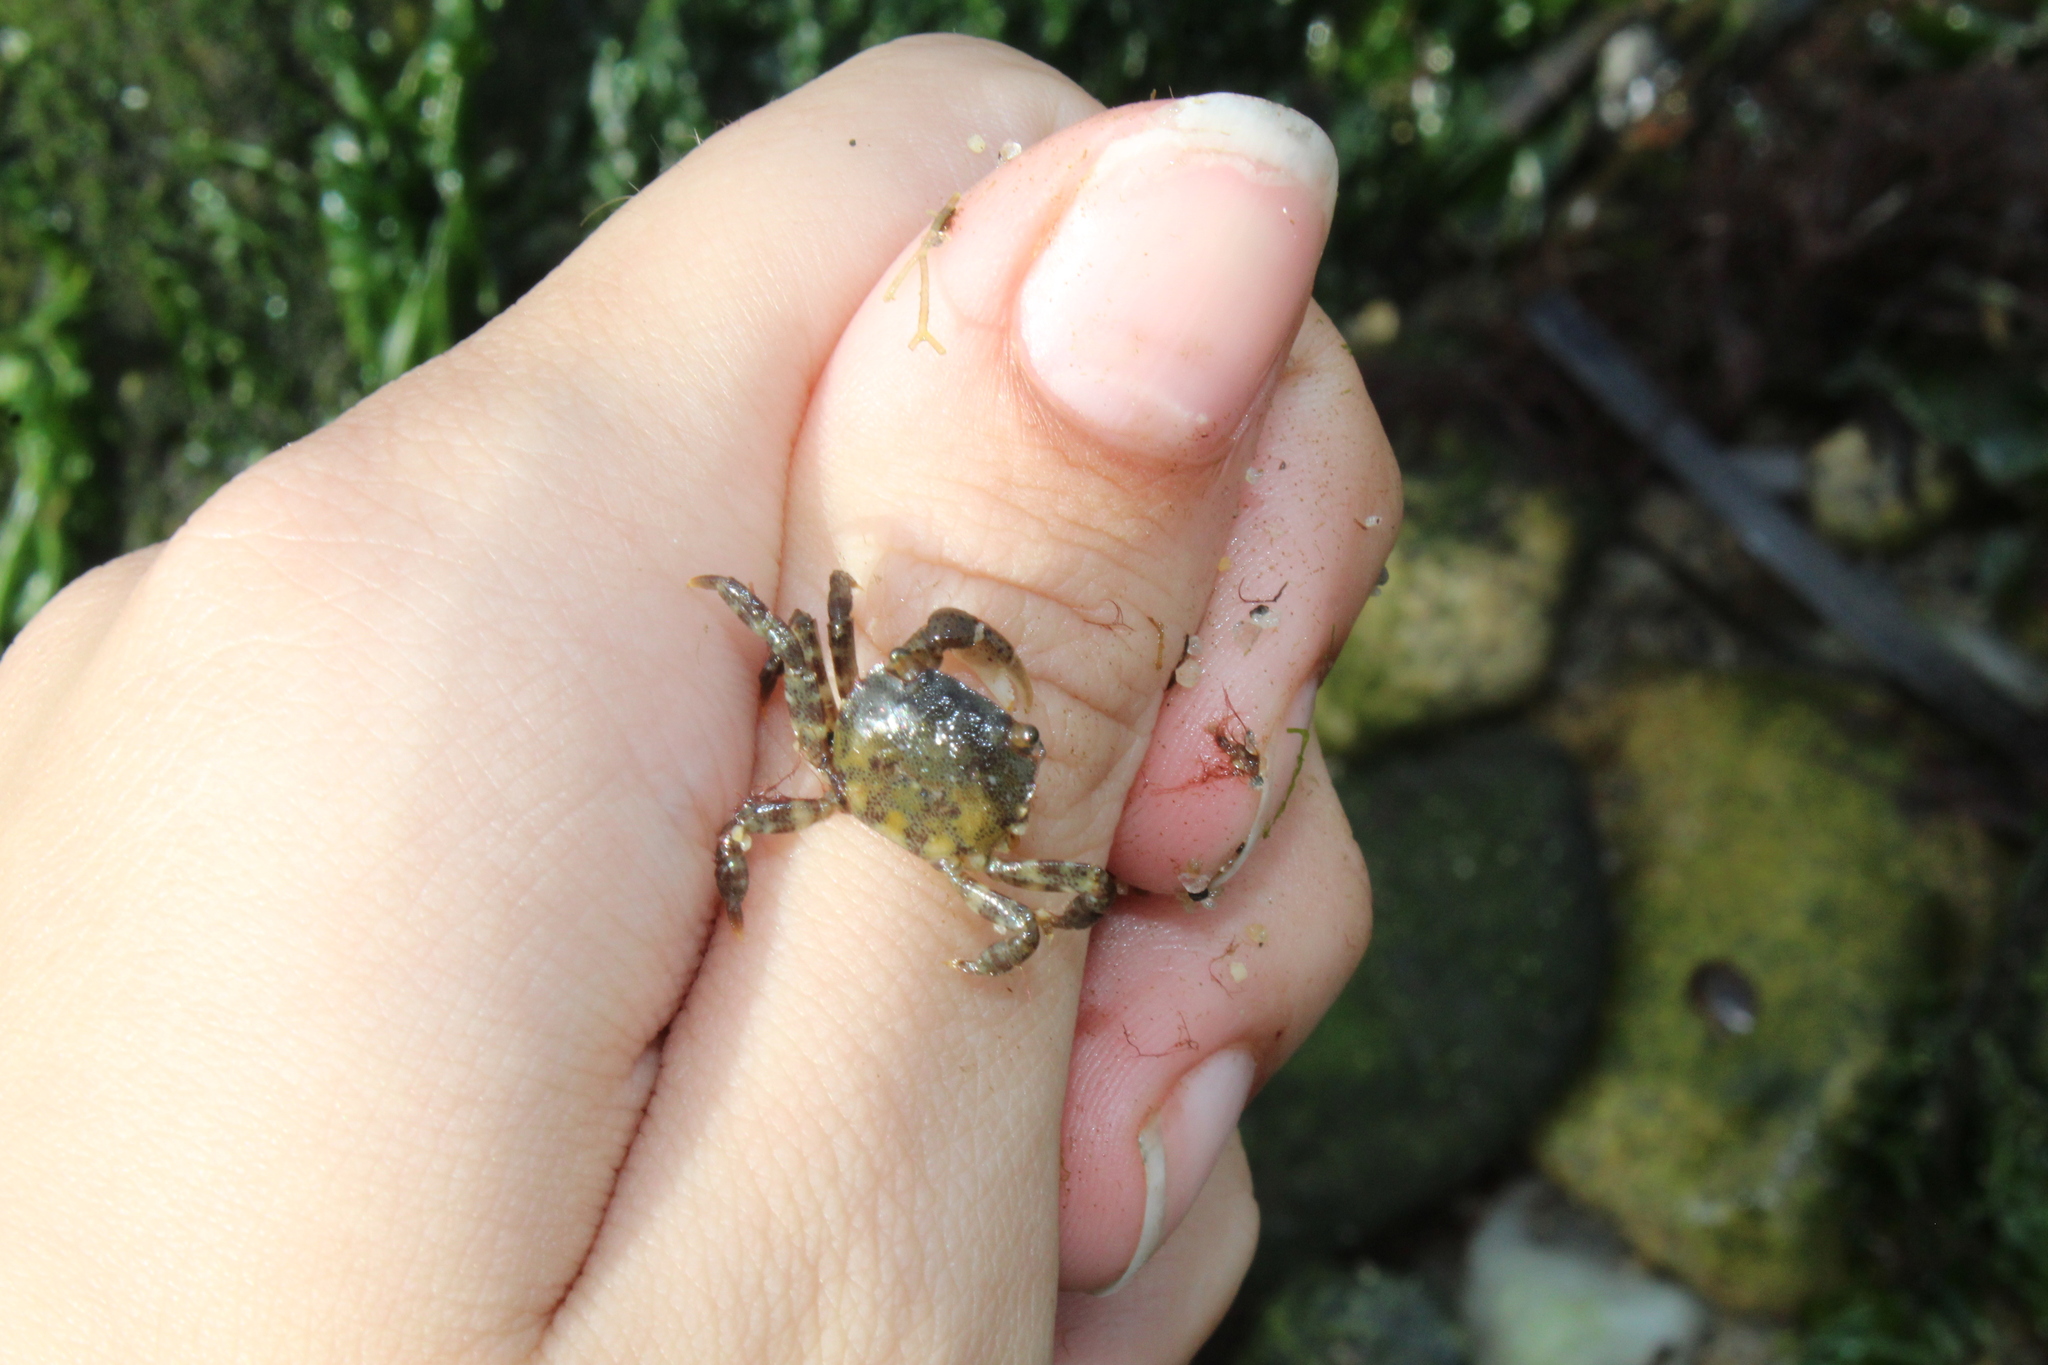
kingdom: Animalia
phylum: Arthropoda
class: Malacostraca
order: Decapoda
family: Varunidae
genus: Hemigrapsus
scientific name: Hemigrapsus sanguineus
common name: Asian shore crab
